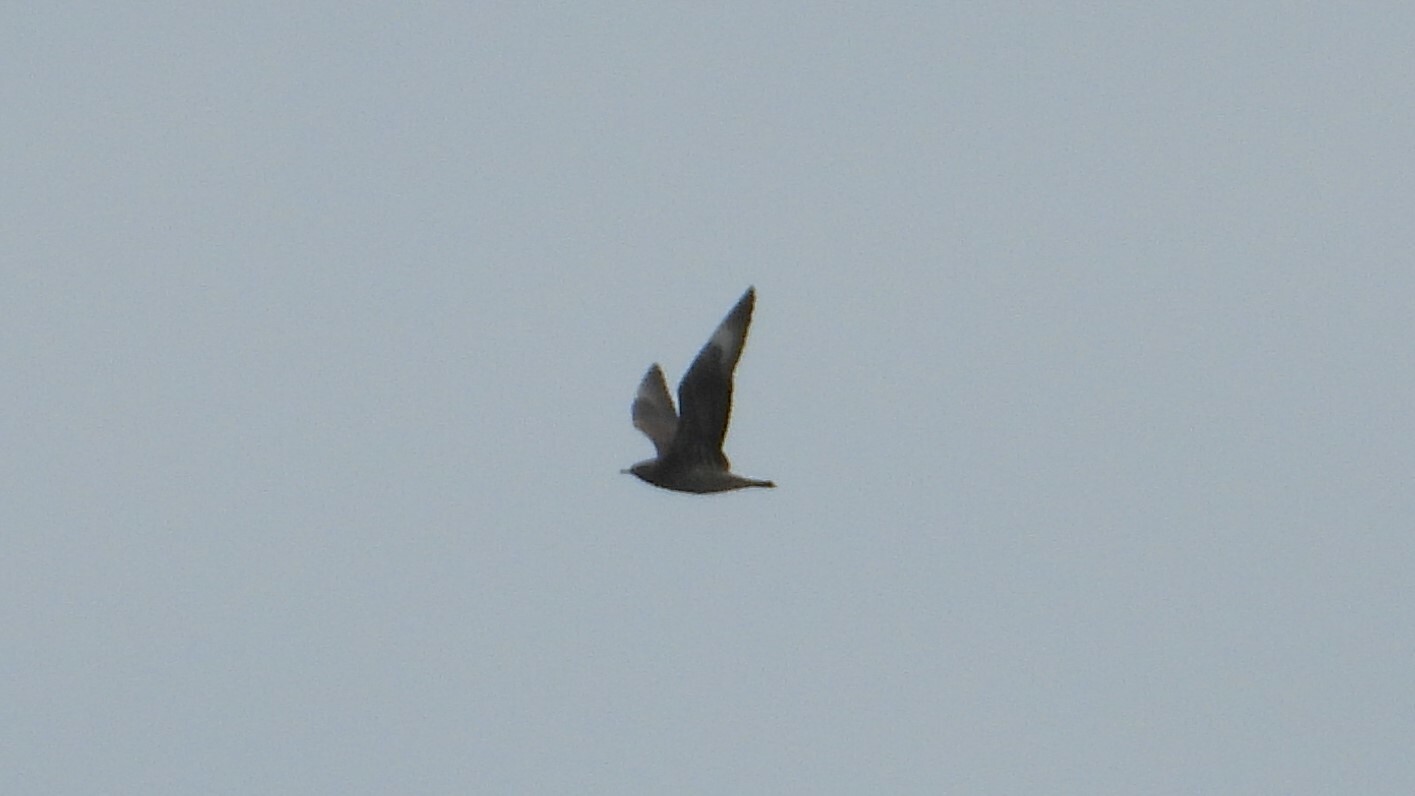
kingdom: Animalia
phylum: Chordata
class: Aves
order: Charadriiformes
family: Stercorariidae
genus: Stercorarius
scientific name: Stercorarius parasiticus
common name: Parasitic jaeger
